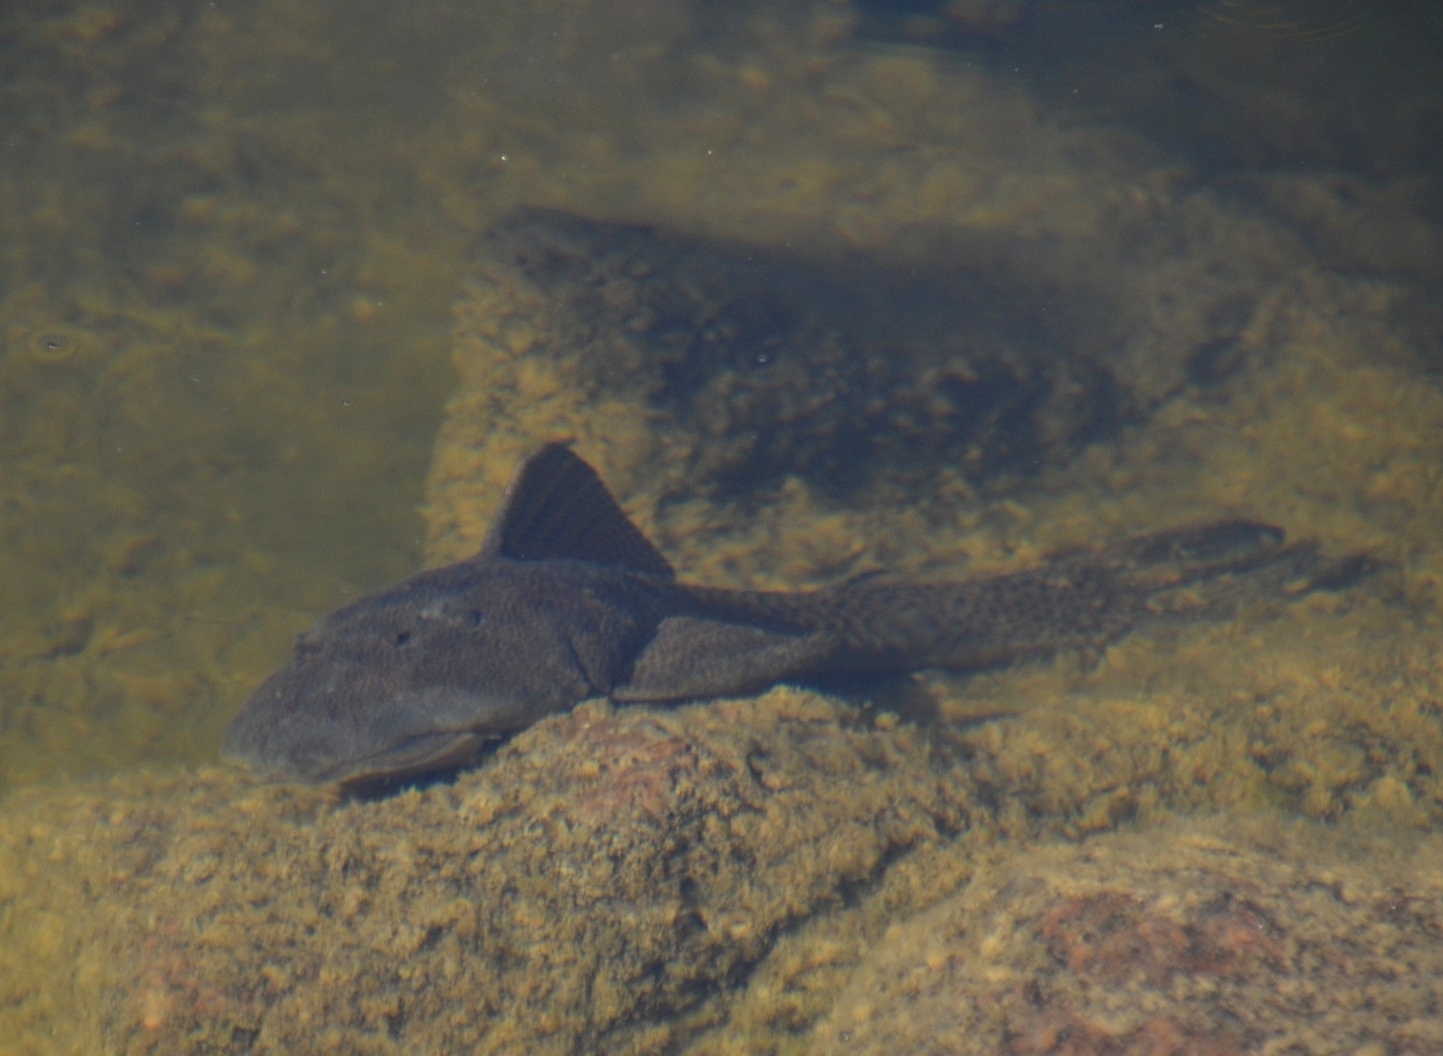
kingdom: Animalia
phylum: Chordata
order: Siluriformes
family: Loricariidae
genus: Hypostomus
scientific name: Hypostomus paranensis
